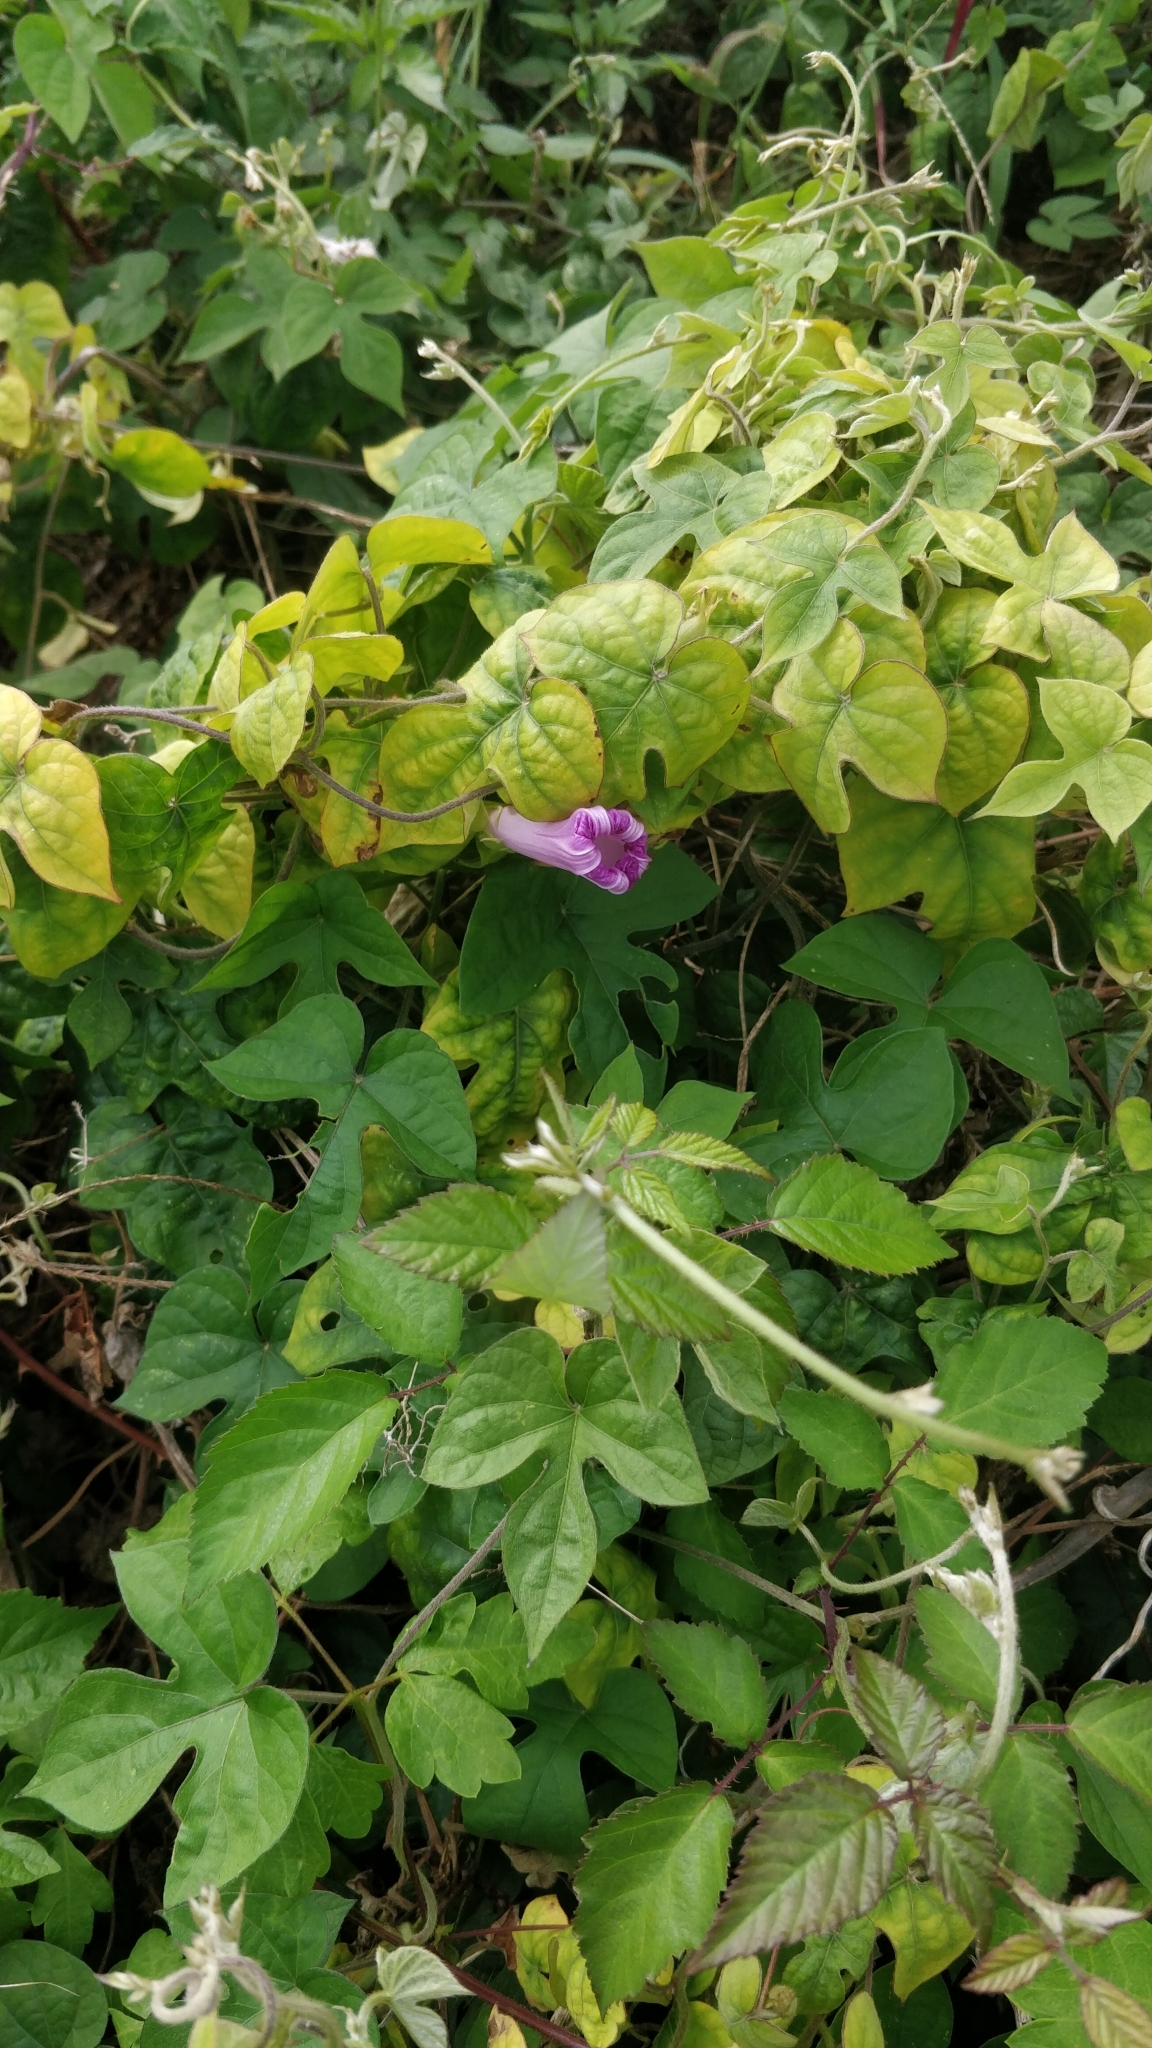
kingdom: Plantae
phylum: Tracheophyta
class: Magnoliopsida
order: Solanales
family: Convolvulaceae
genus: Ipomoea
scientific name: Ipomoea indica
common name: Blue dawnflower
